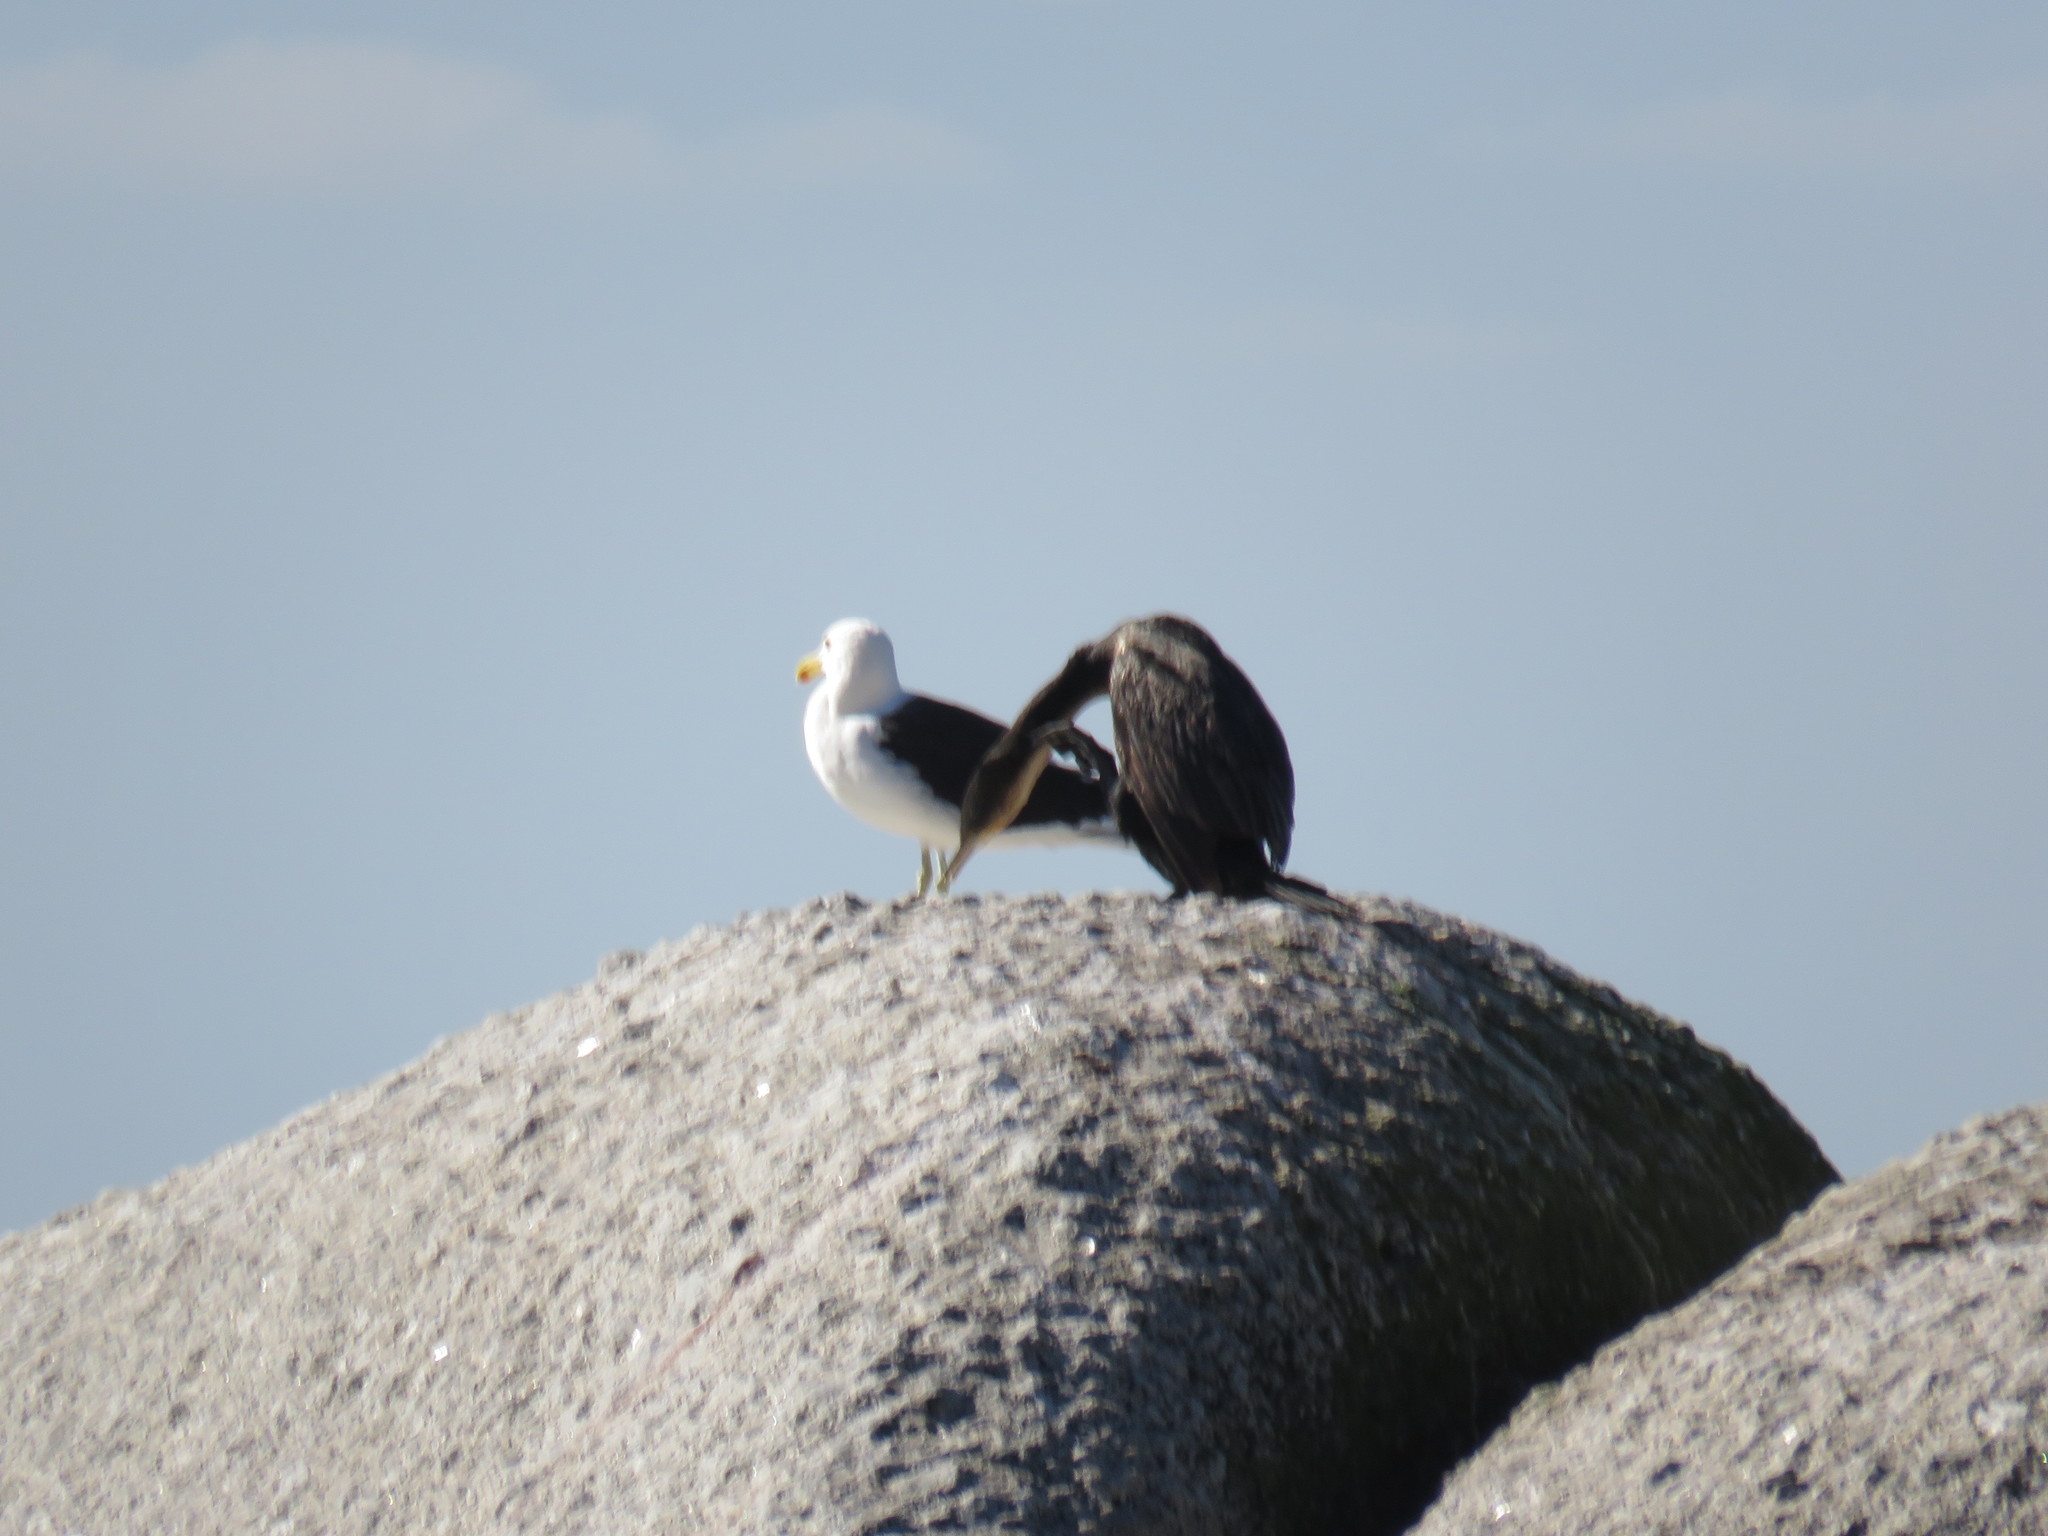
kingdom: Animalia
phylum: Chordata
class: Aves
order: Charadriiformes
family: Laridae
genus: Larus
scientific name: Larus dominicanus
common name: Kelp gull
